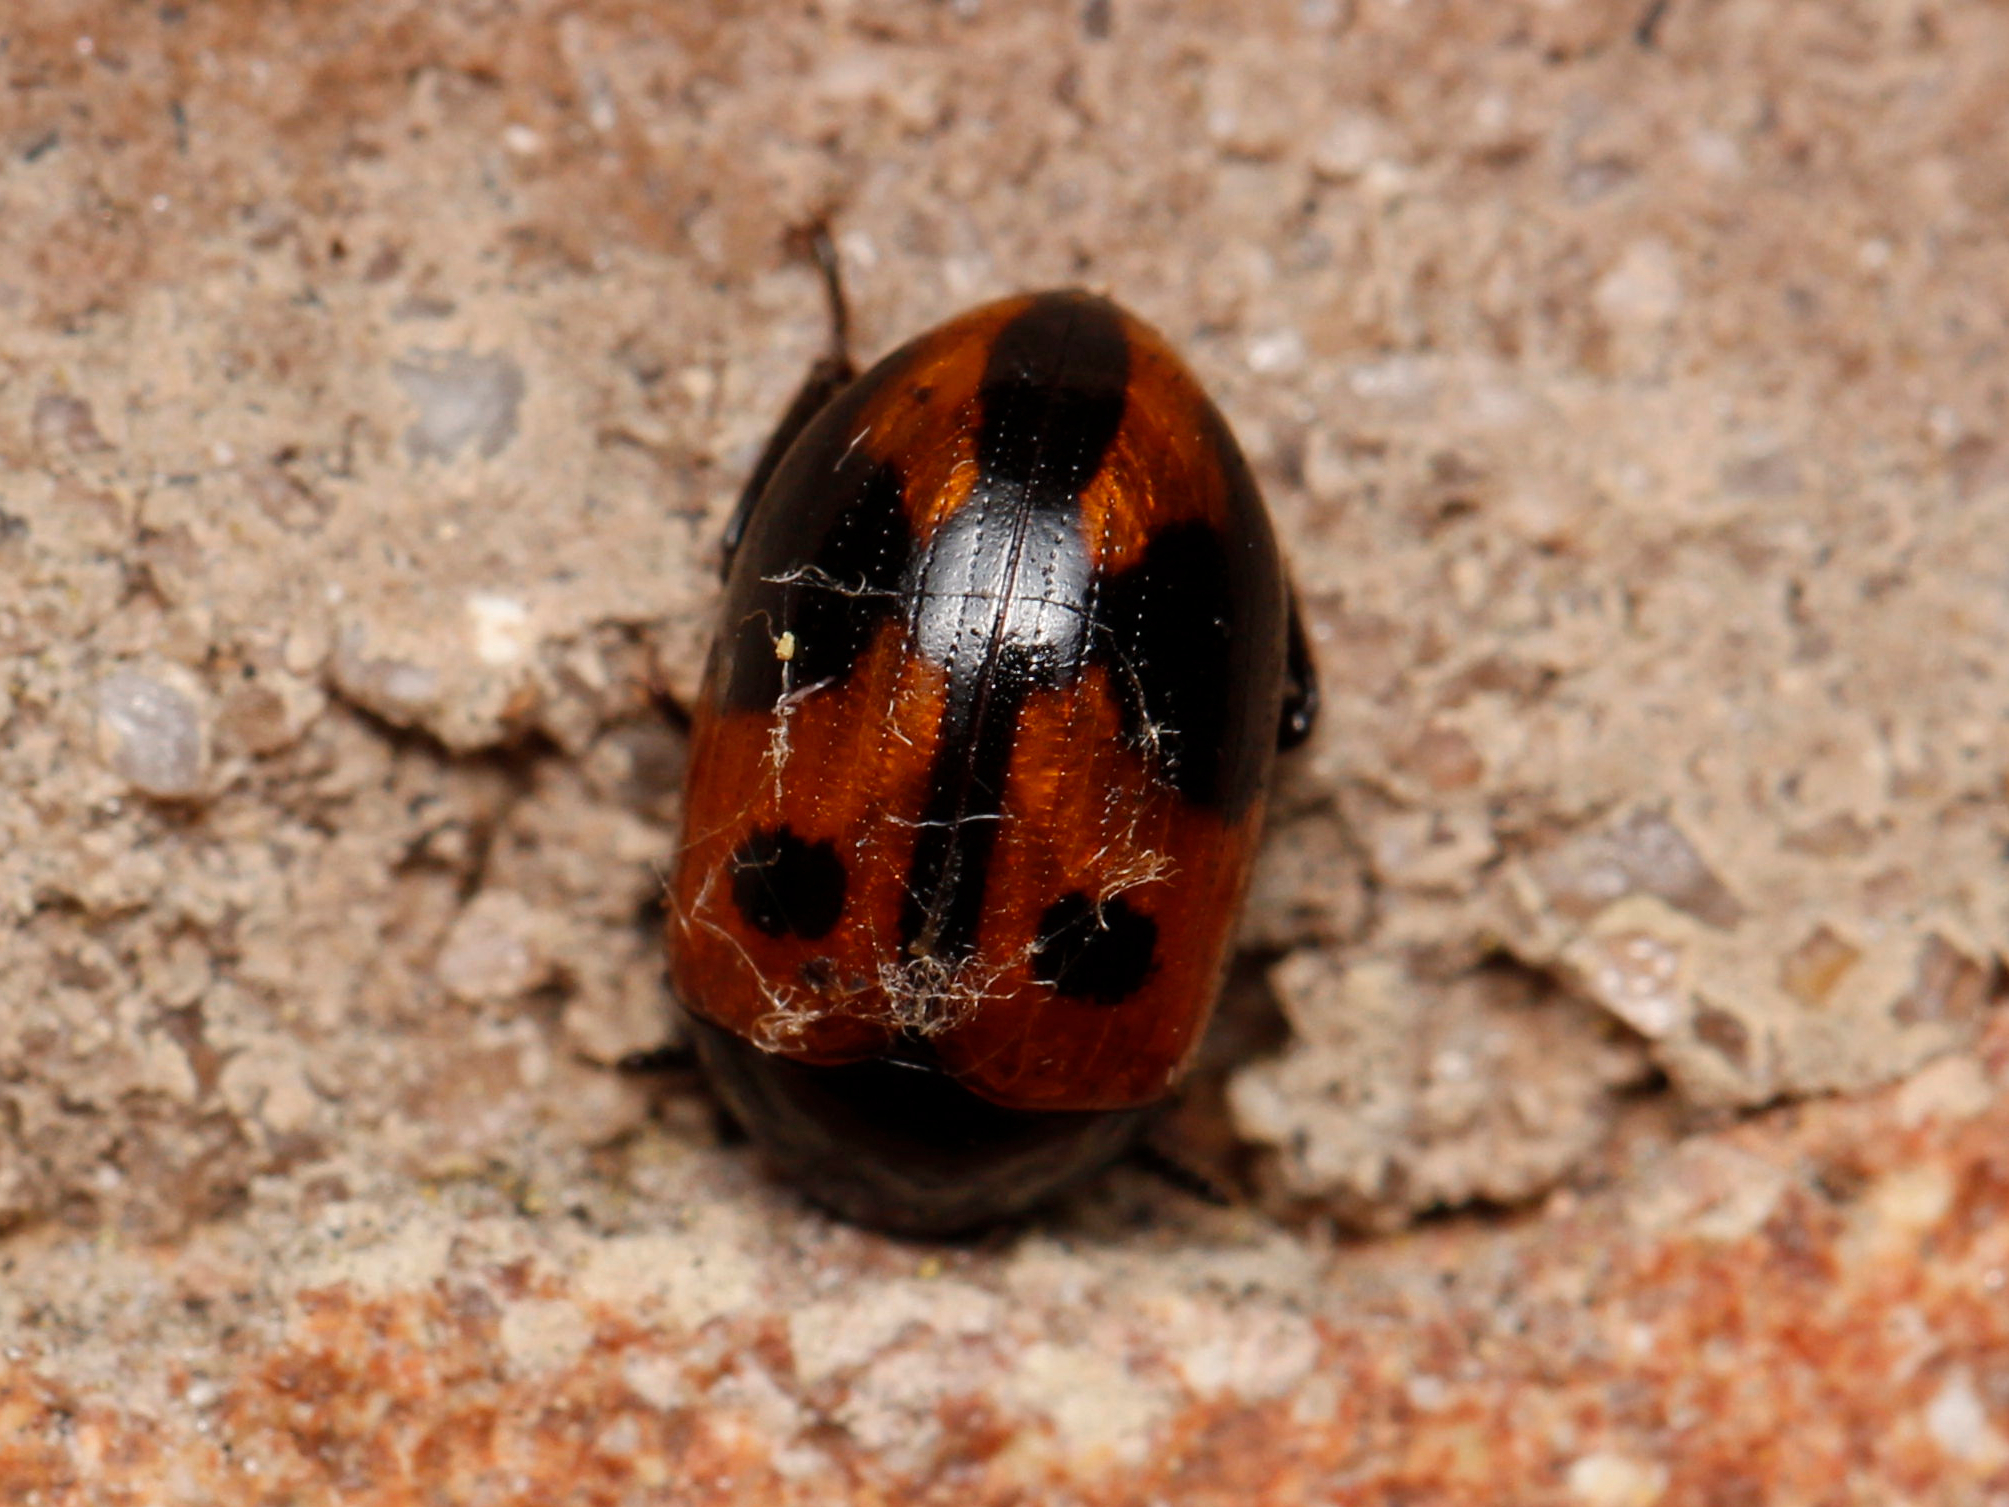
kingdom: Animalia
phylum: Arthropoda
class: Insecta
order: Coleoptera
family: Tenebrionidae
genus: Diaperis
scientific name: Diaperis maculata
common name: Darkling beetle
